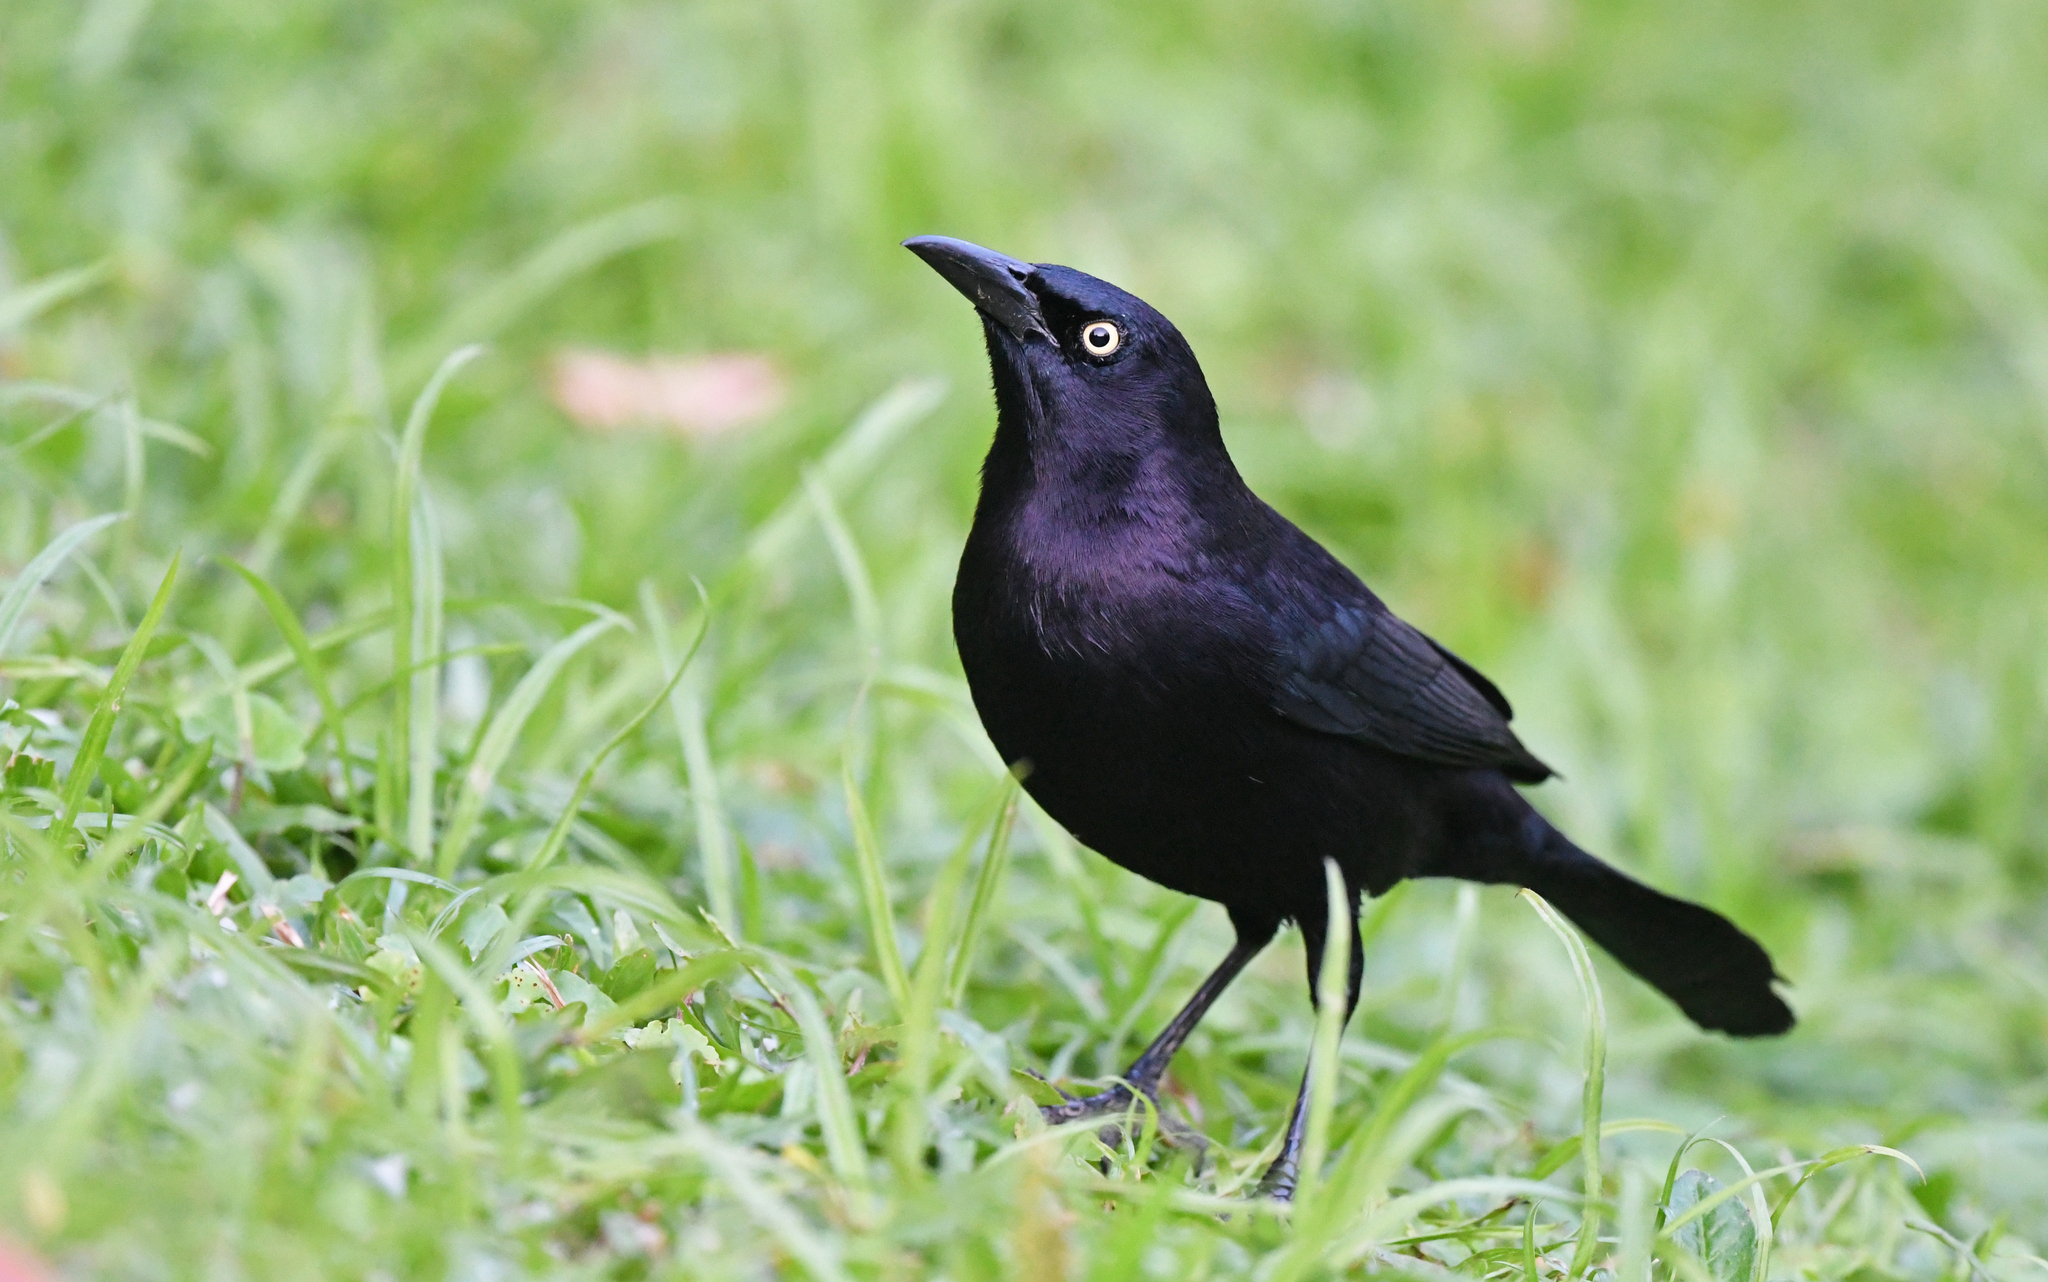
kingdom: Animalia
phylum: Chordata
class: Aves
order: Passeriformes
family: Icteridae
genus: Quiscalus
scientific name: Quiscalus lugubris
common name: Carib grackle
